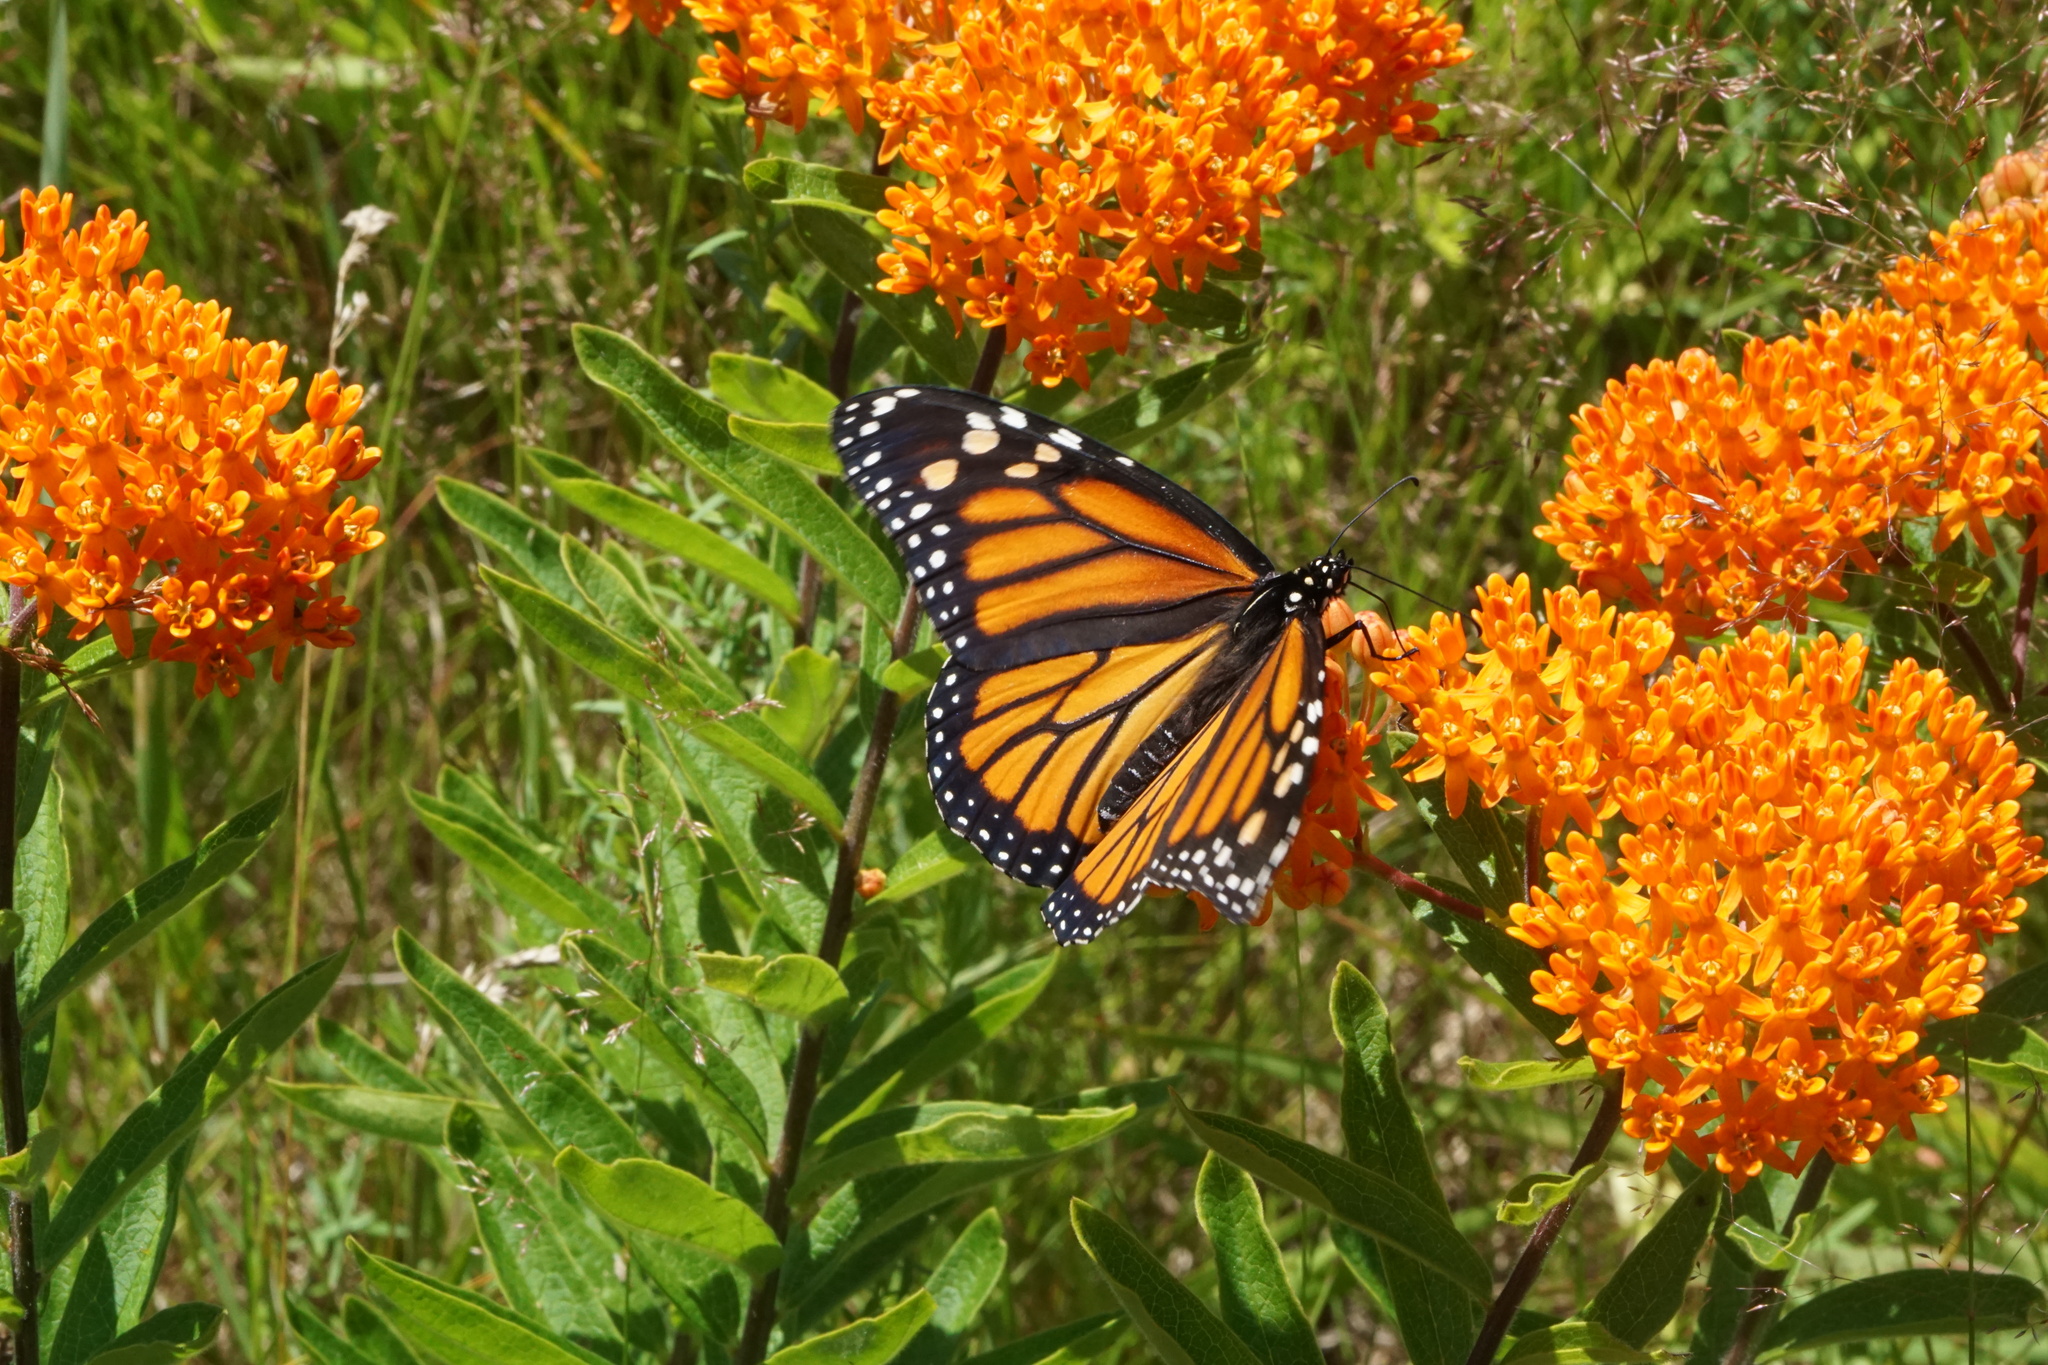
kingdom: Animalia
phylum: Arthropoda
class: Insecta
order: Lepidoptera
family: Nymphalidae
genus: Danaus
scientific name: Danaus plexippus
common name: Monarch
